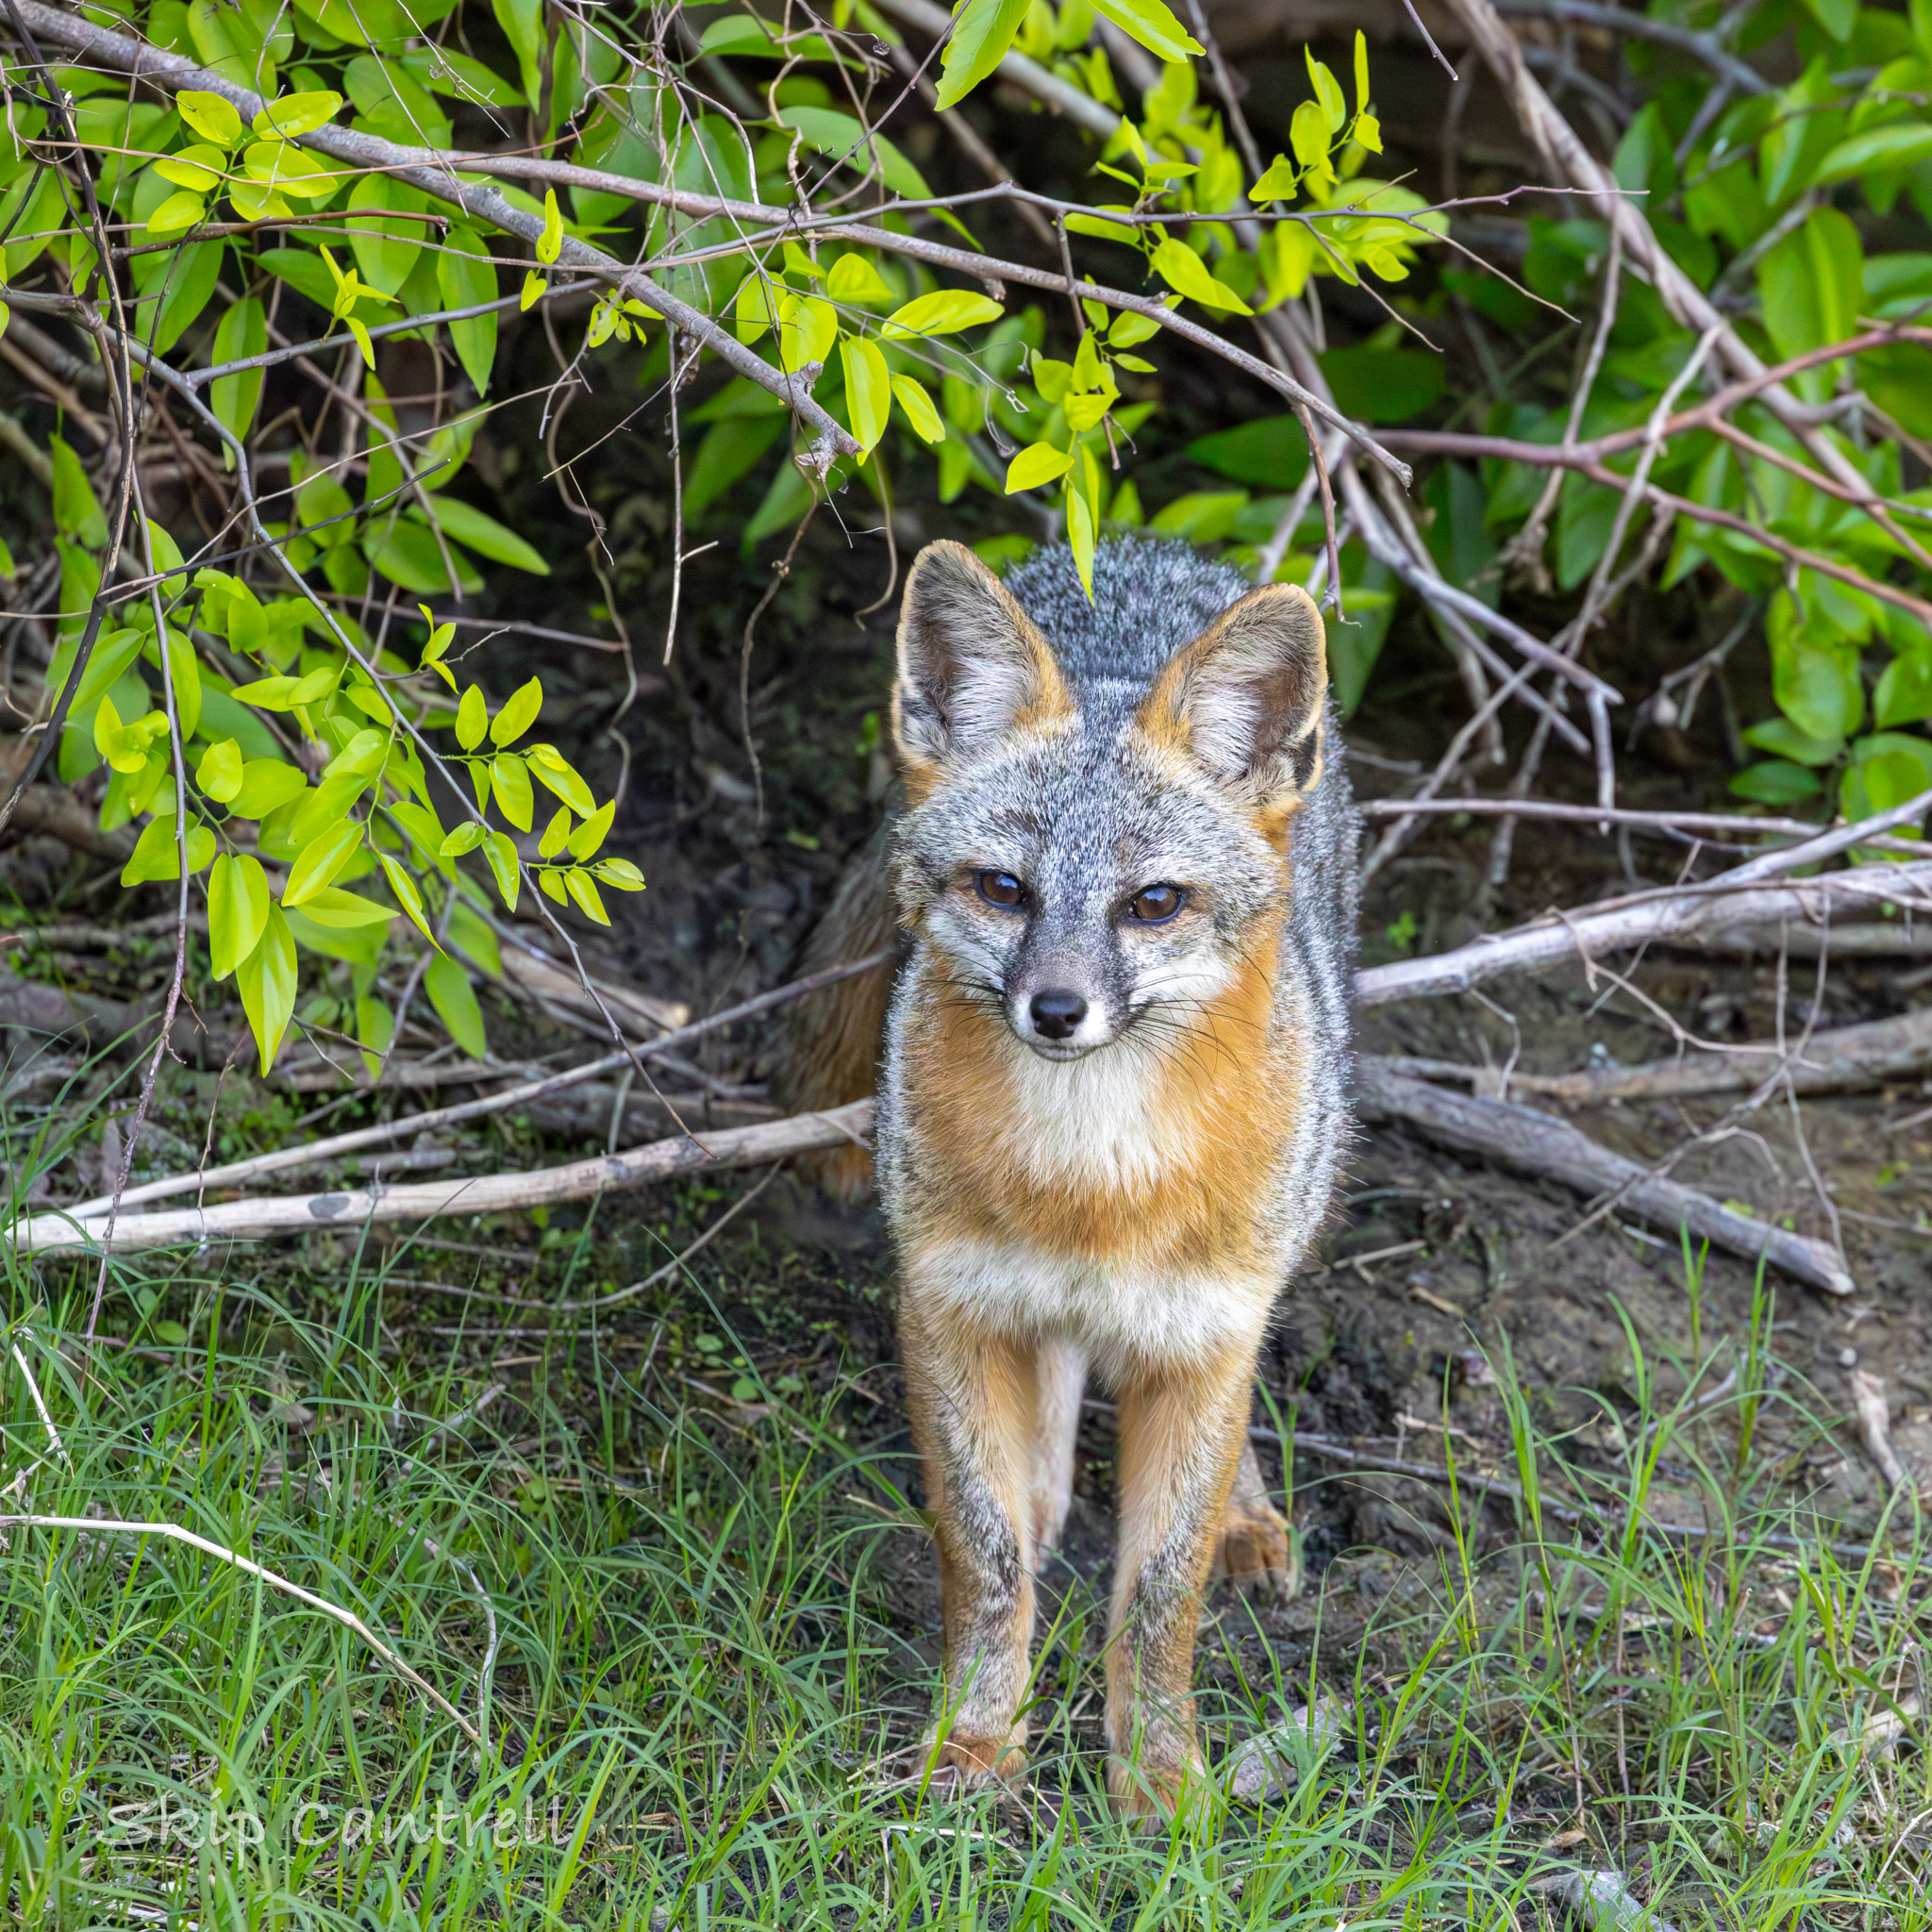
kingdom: Animalia
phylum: Chordata
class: Mammalia
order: Carnivora
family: Canidae
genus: Urocyon
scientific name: Urocyon cinereoargenteus
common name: Gray fox
